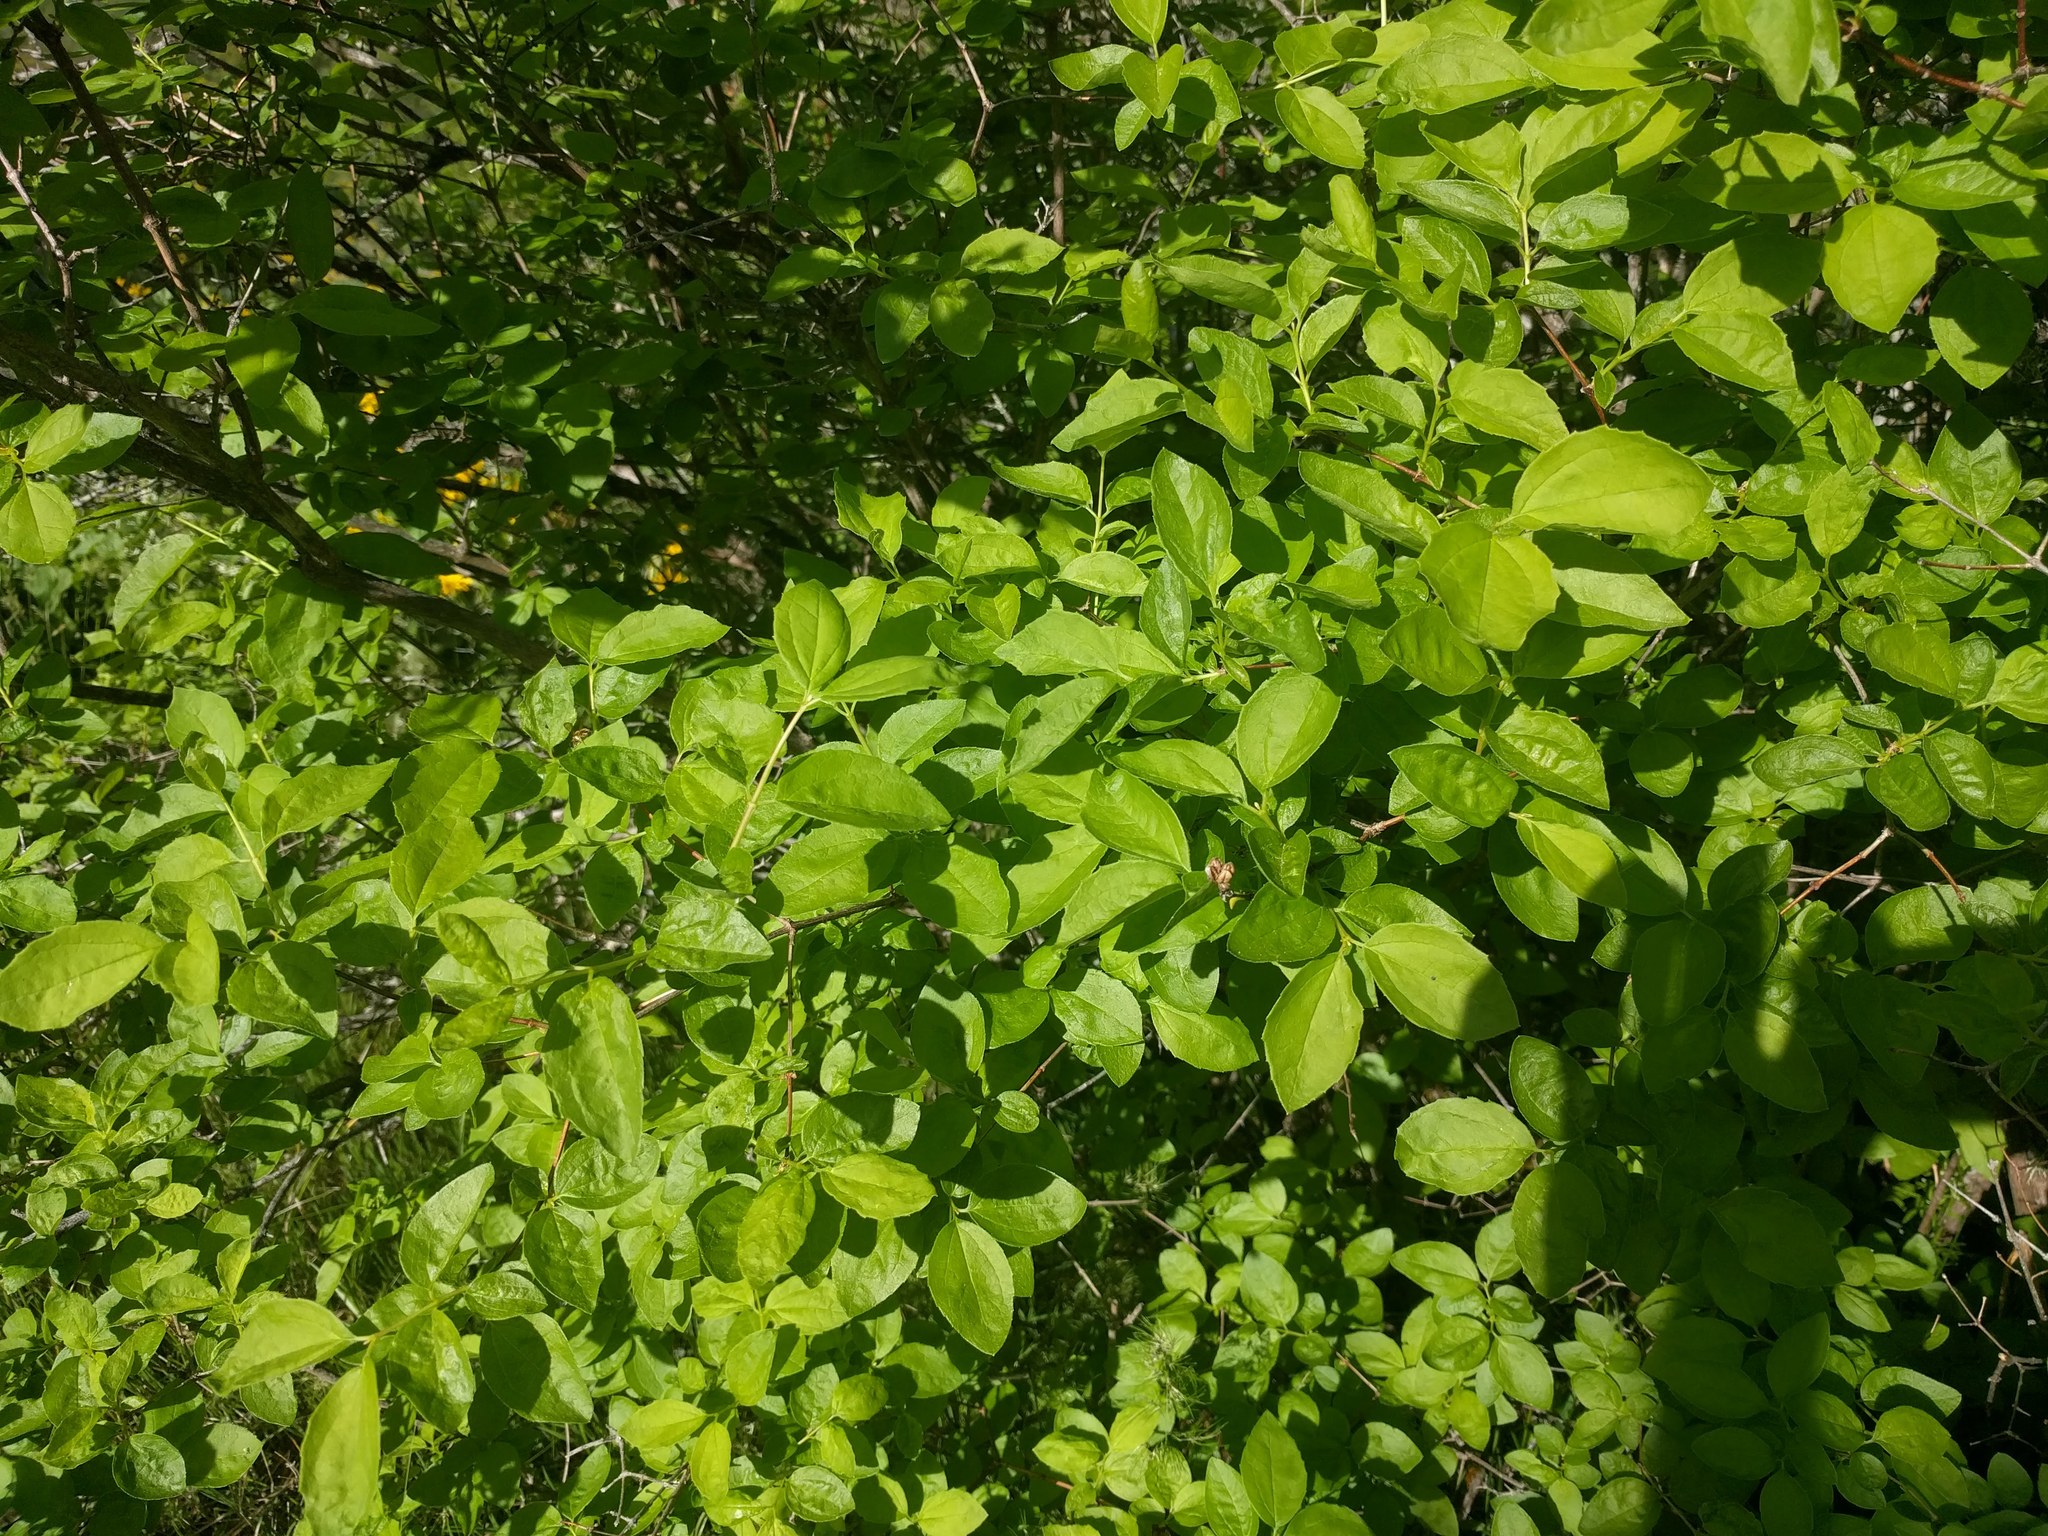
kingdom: Plantae
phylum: Tracheophyta
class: Magnoliopsida
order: Cornales
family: Hydrangeaceae
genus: Philadelphus
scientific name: Philadelphus lewisii
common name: Lewis's mock orange
